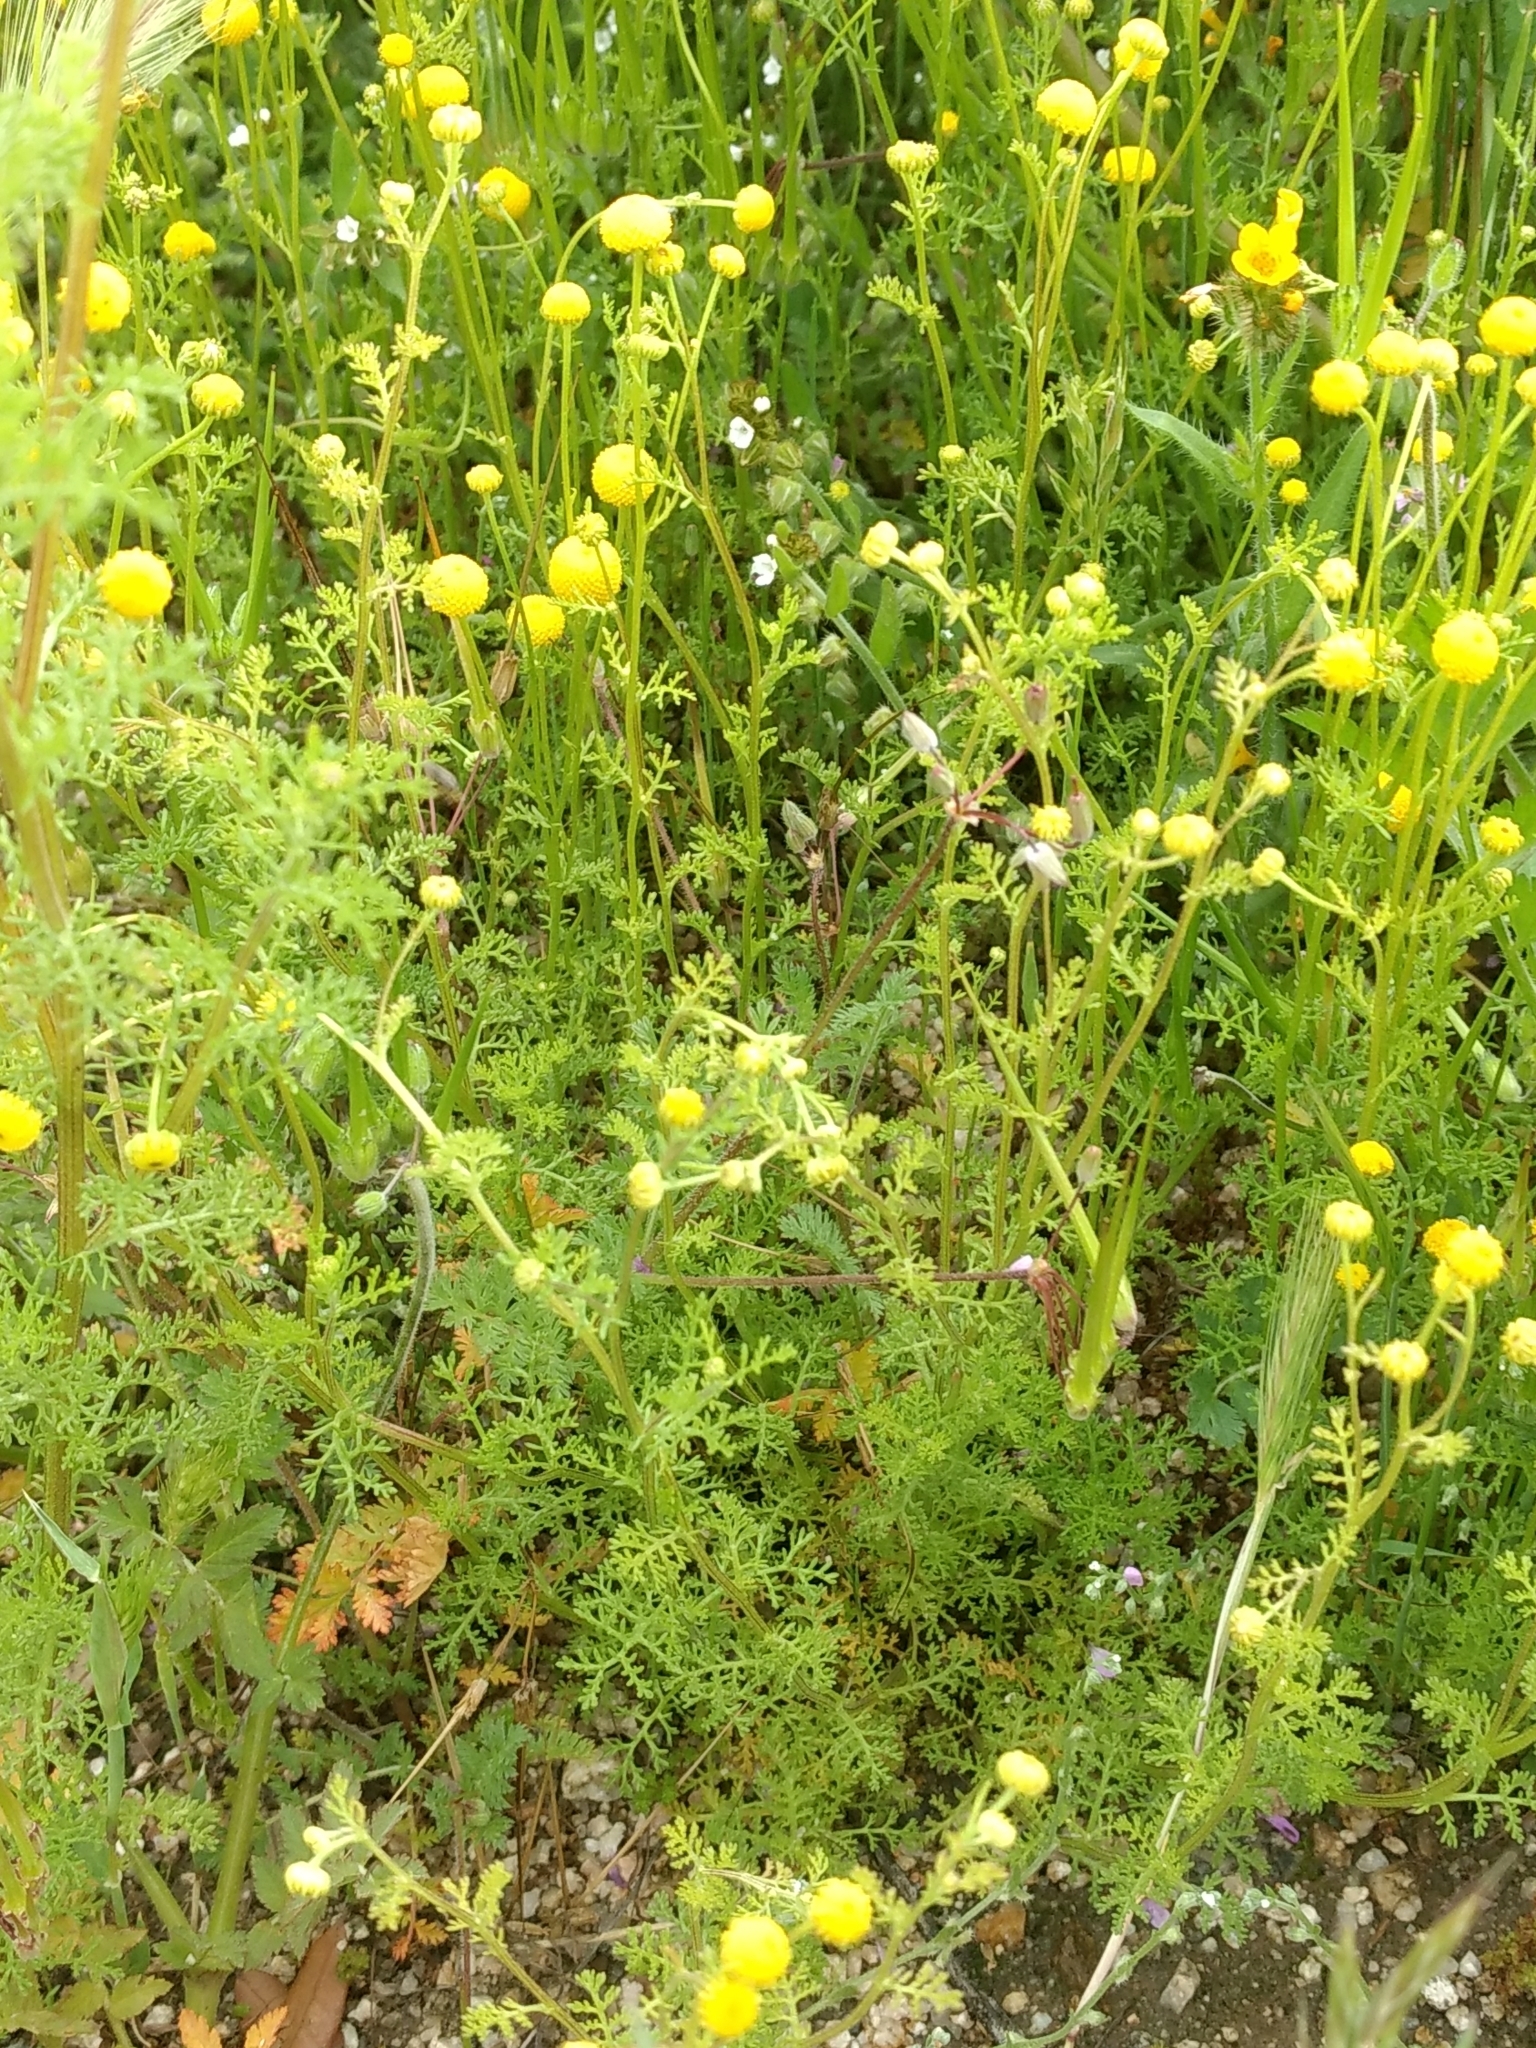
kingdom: Plantae
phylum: Tracheophyta
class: Magnoliopsida
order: Asterales
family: Asteraceae
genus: Oncosiphon
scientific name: Oncosiphon pilulifer
